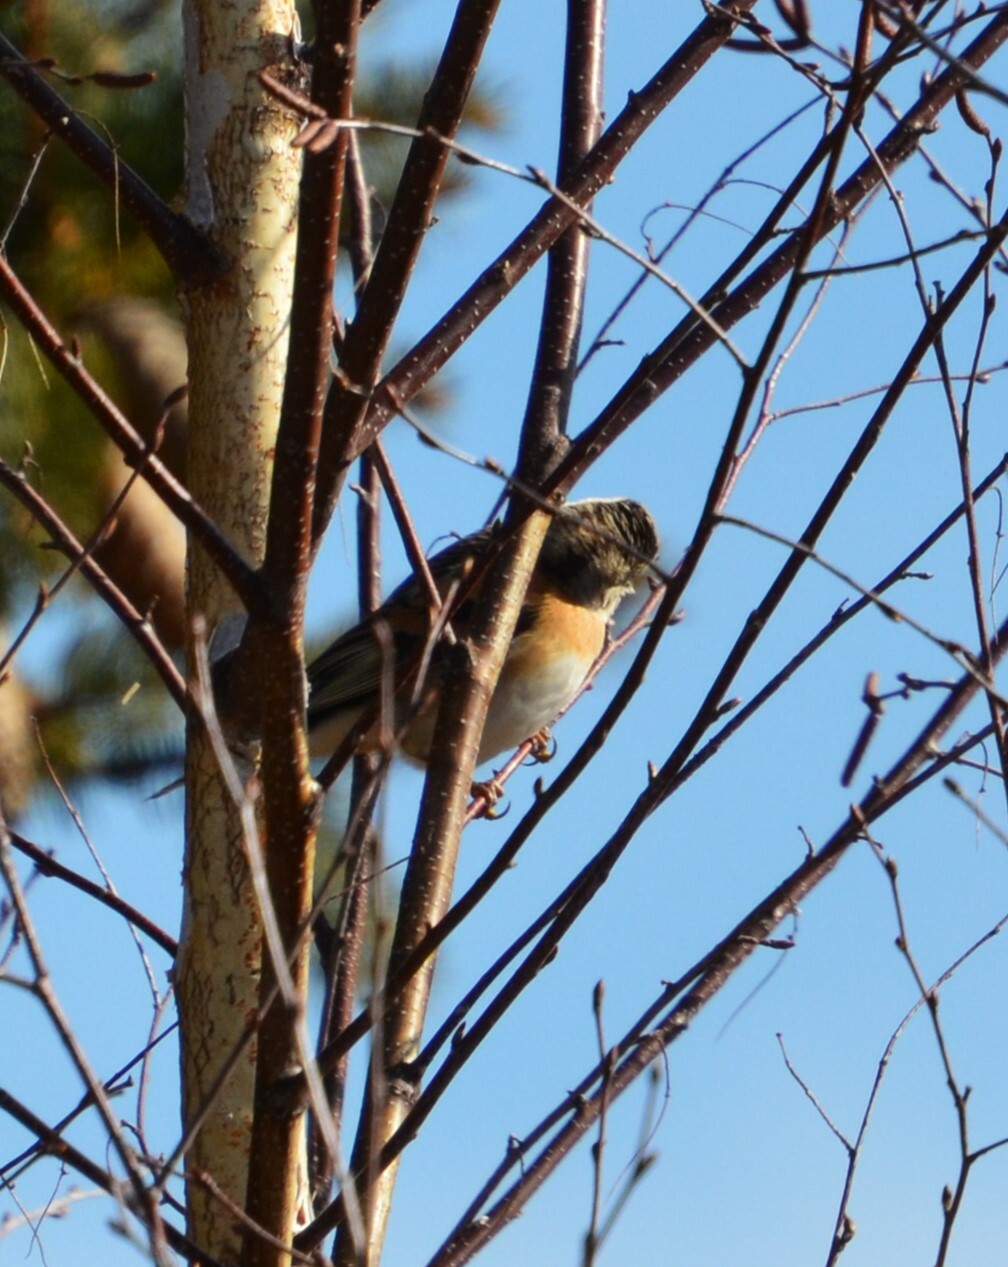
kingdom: Animalia
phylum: Chordata
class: Aves
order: Passeriformes
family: Fringillidae
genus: Fringilla
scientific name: Fringilla montifringilla
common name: Brambling
